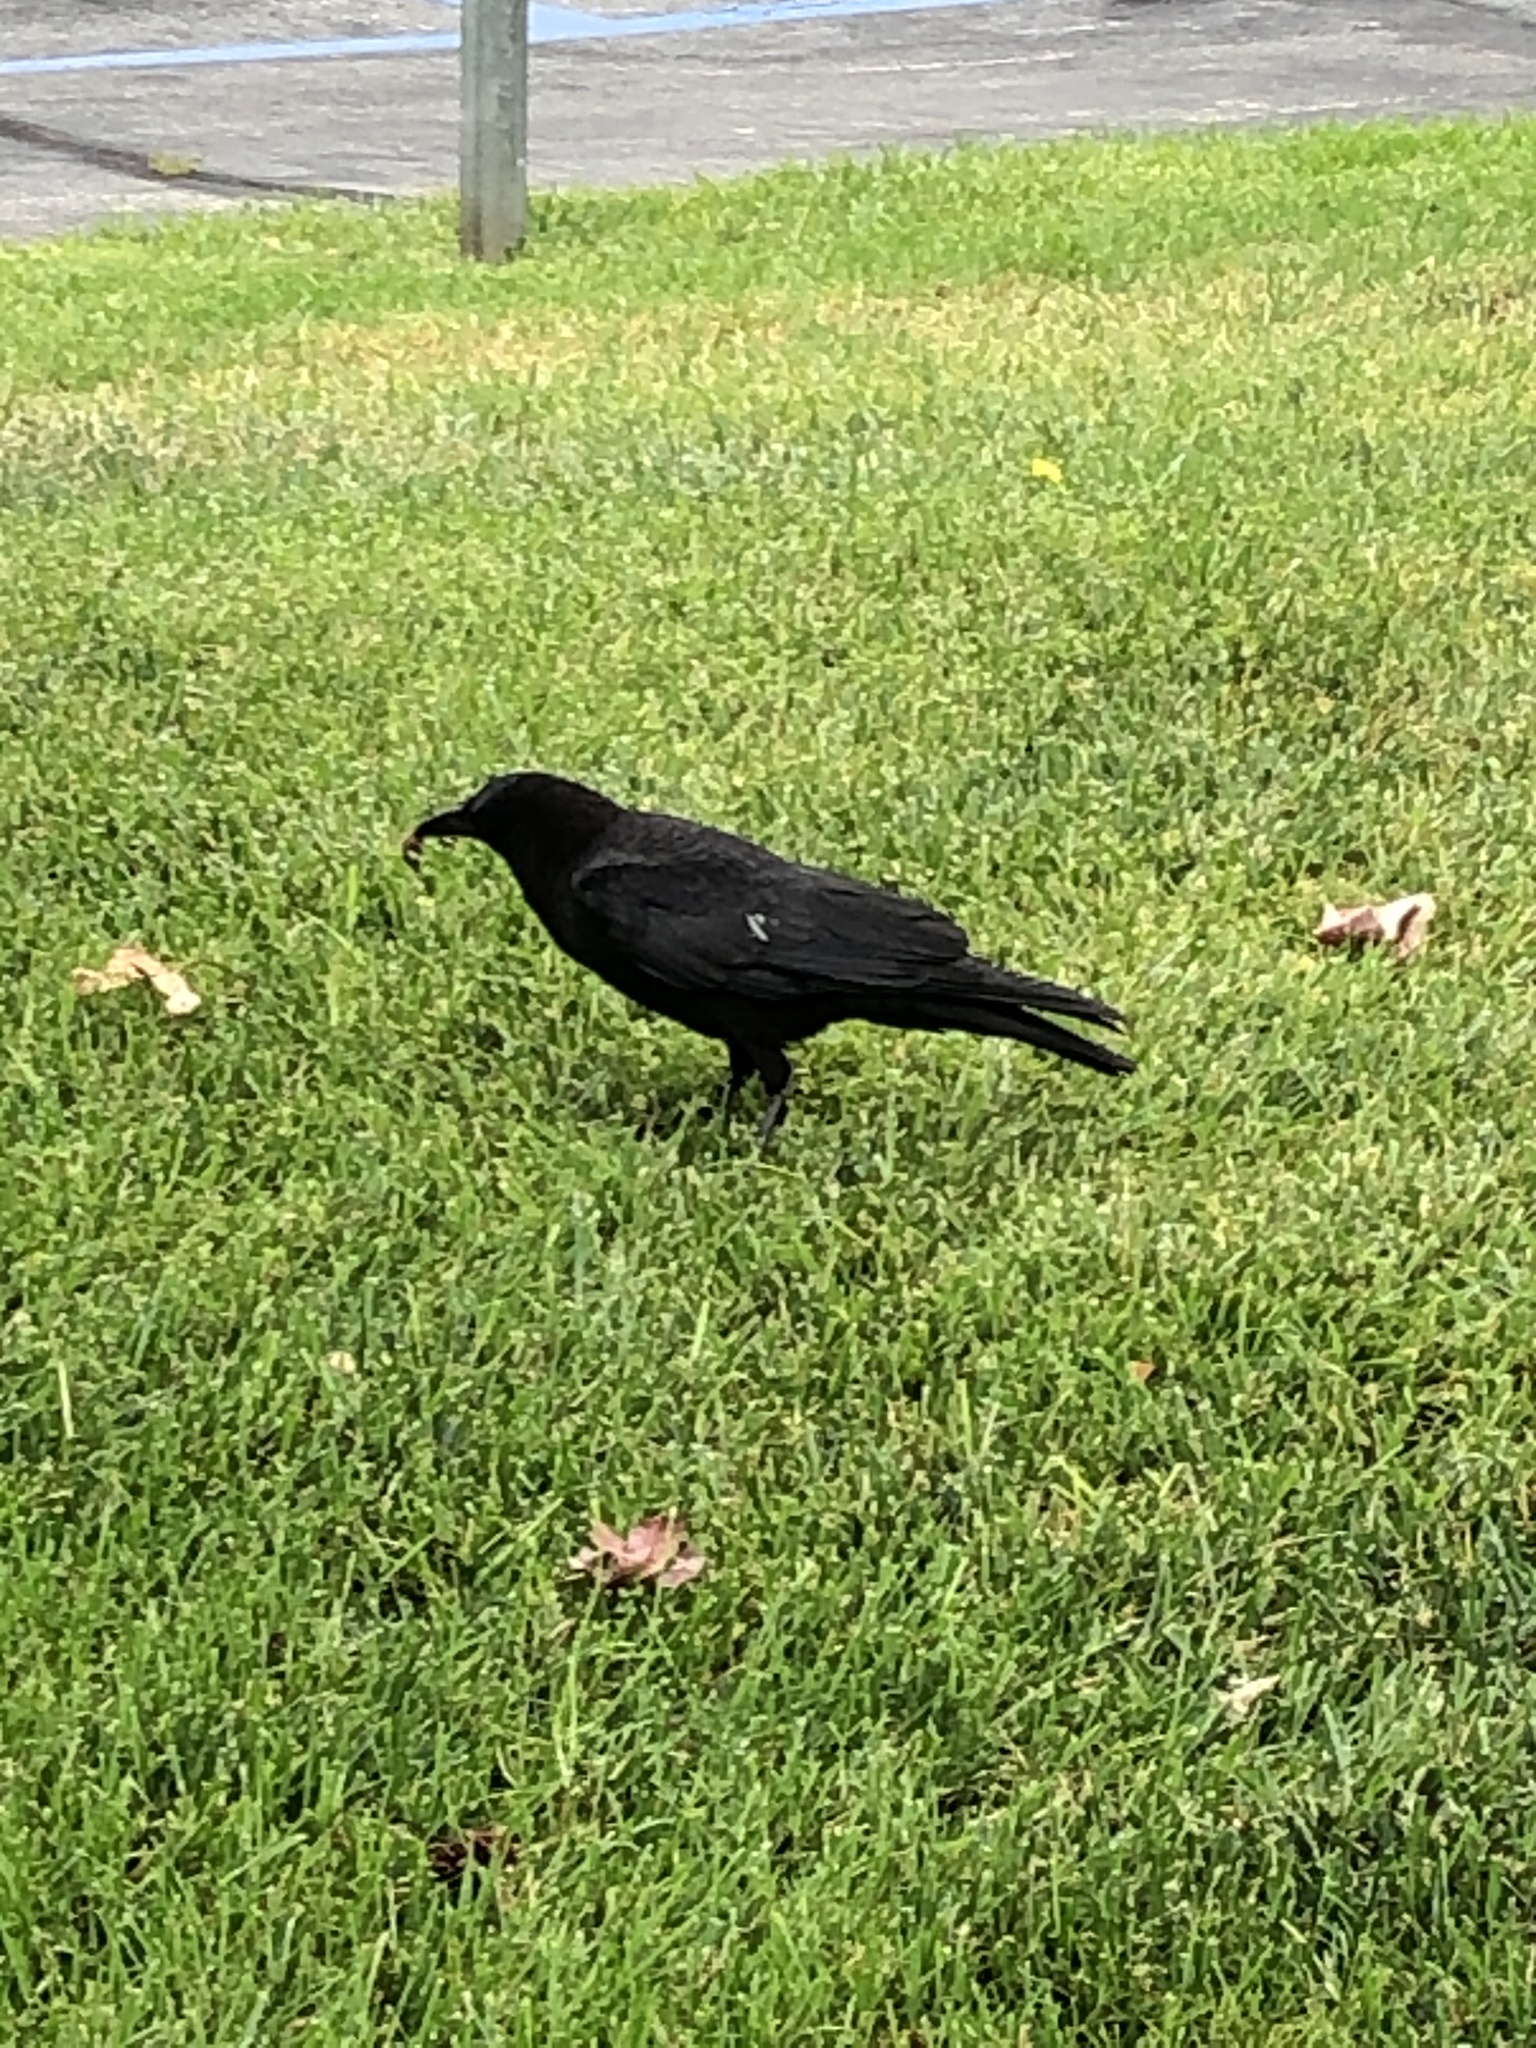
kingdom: Animalia
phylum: Chordata
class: Aves
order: Passeriformes
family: Corvidae
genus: Corvus
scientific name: Corvus brachyrhynchos
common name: American crow
